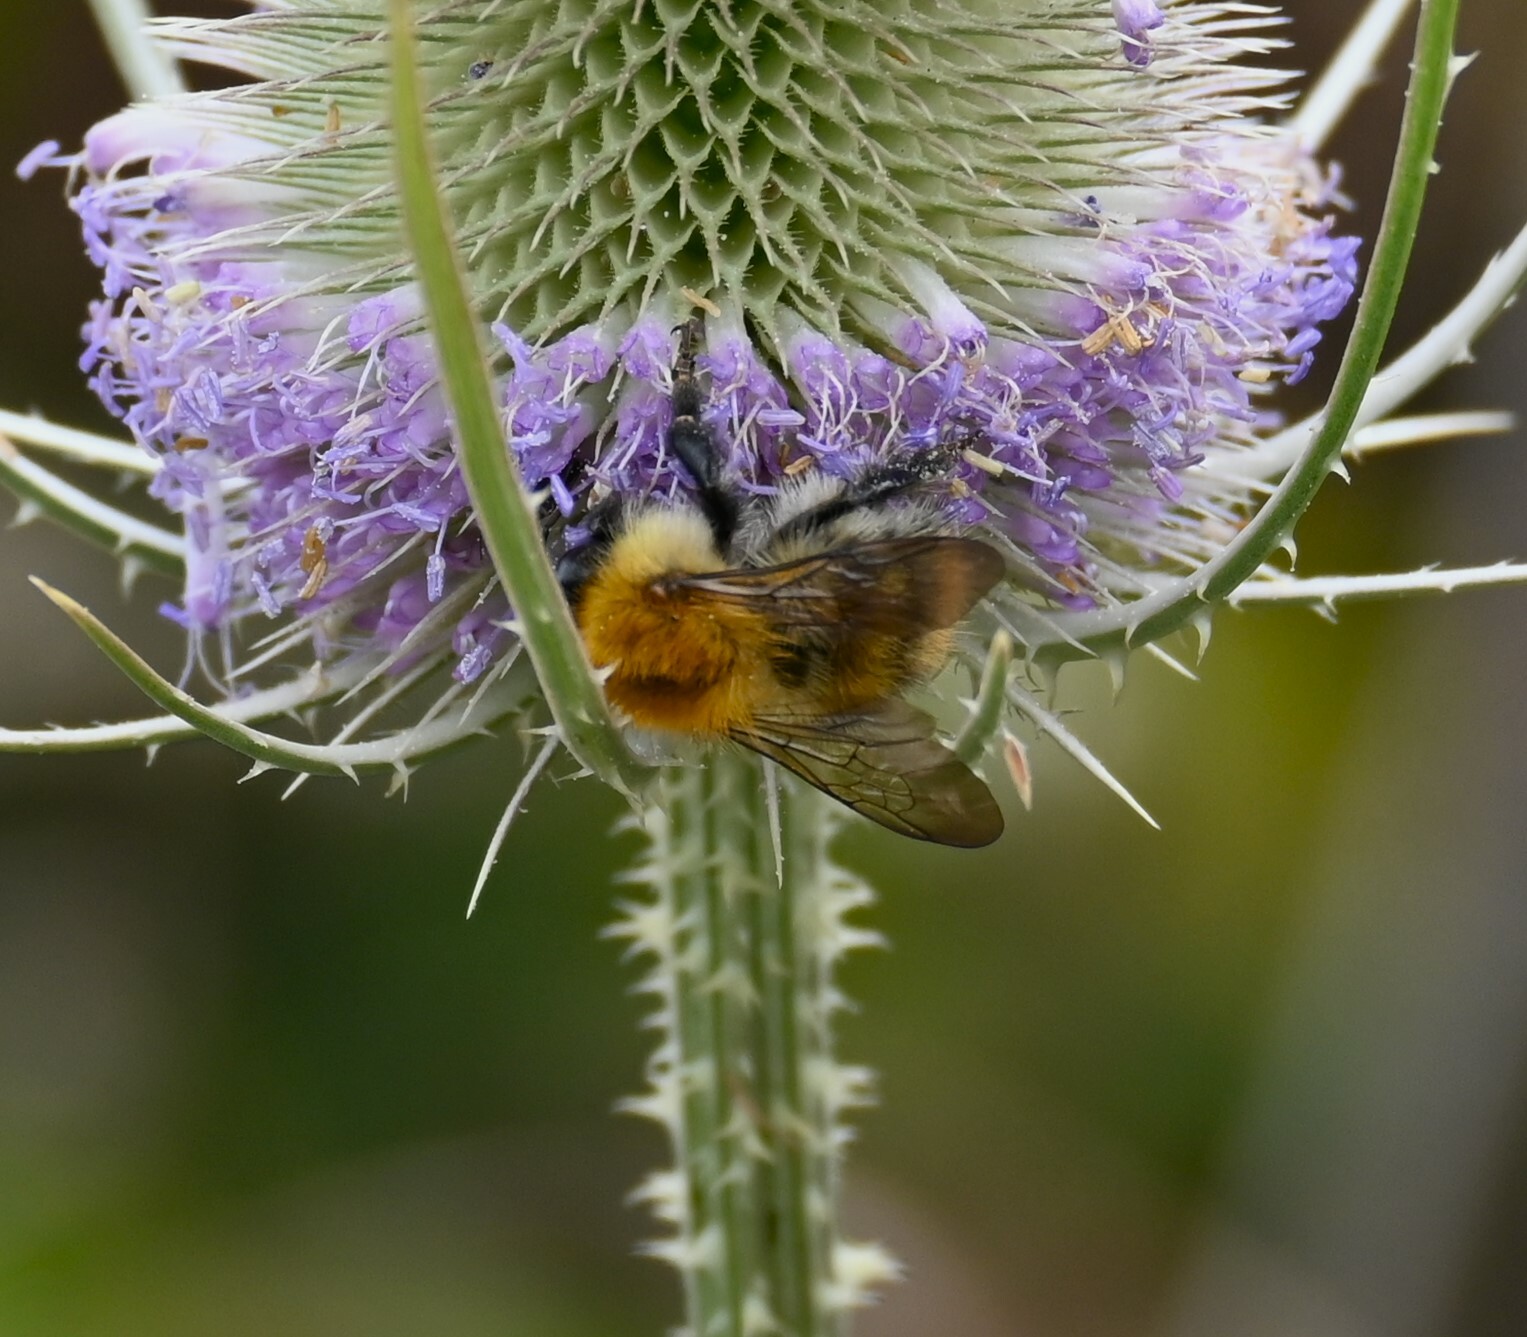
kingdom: Animalia
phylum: Arthropoda
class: Insecta
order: Hymenoptera
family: Apidae
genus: Bombus
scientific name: Bombus pascuorum
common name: Common carder bee
